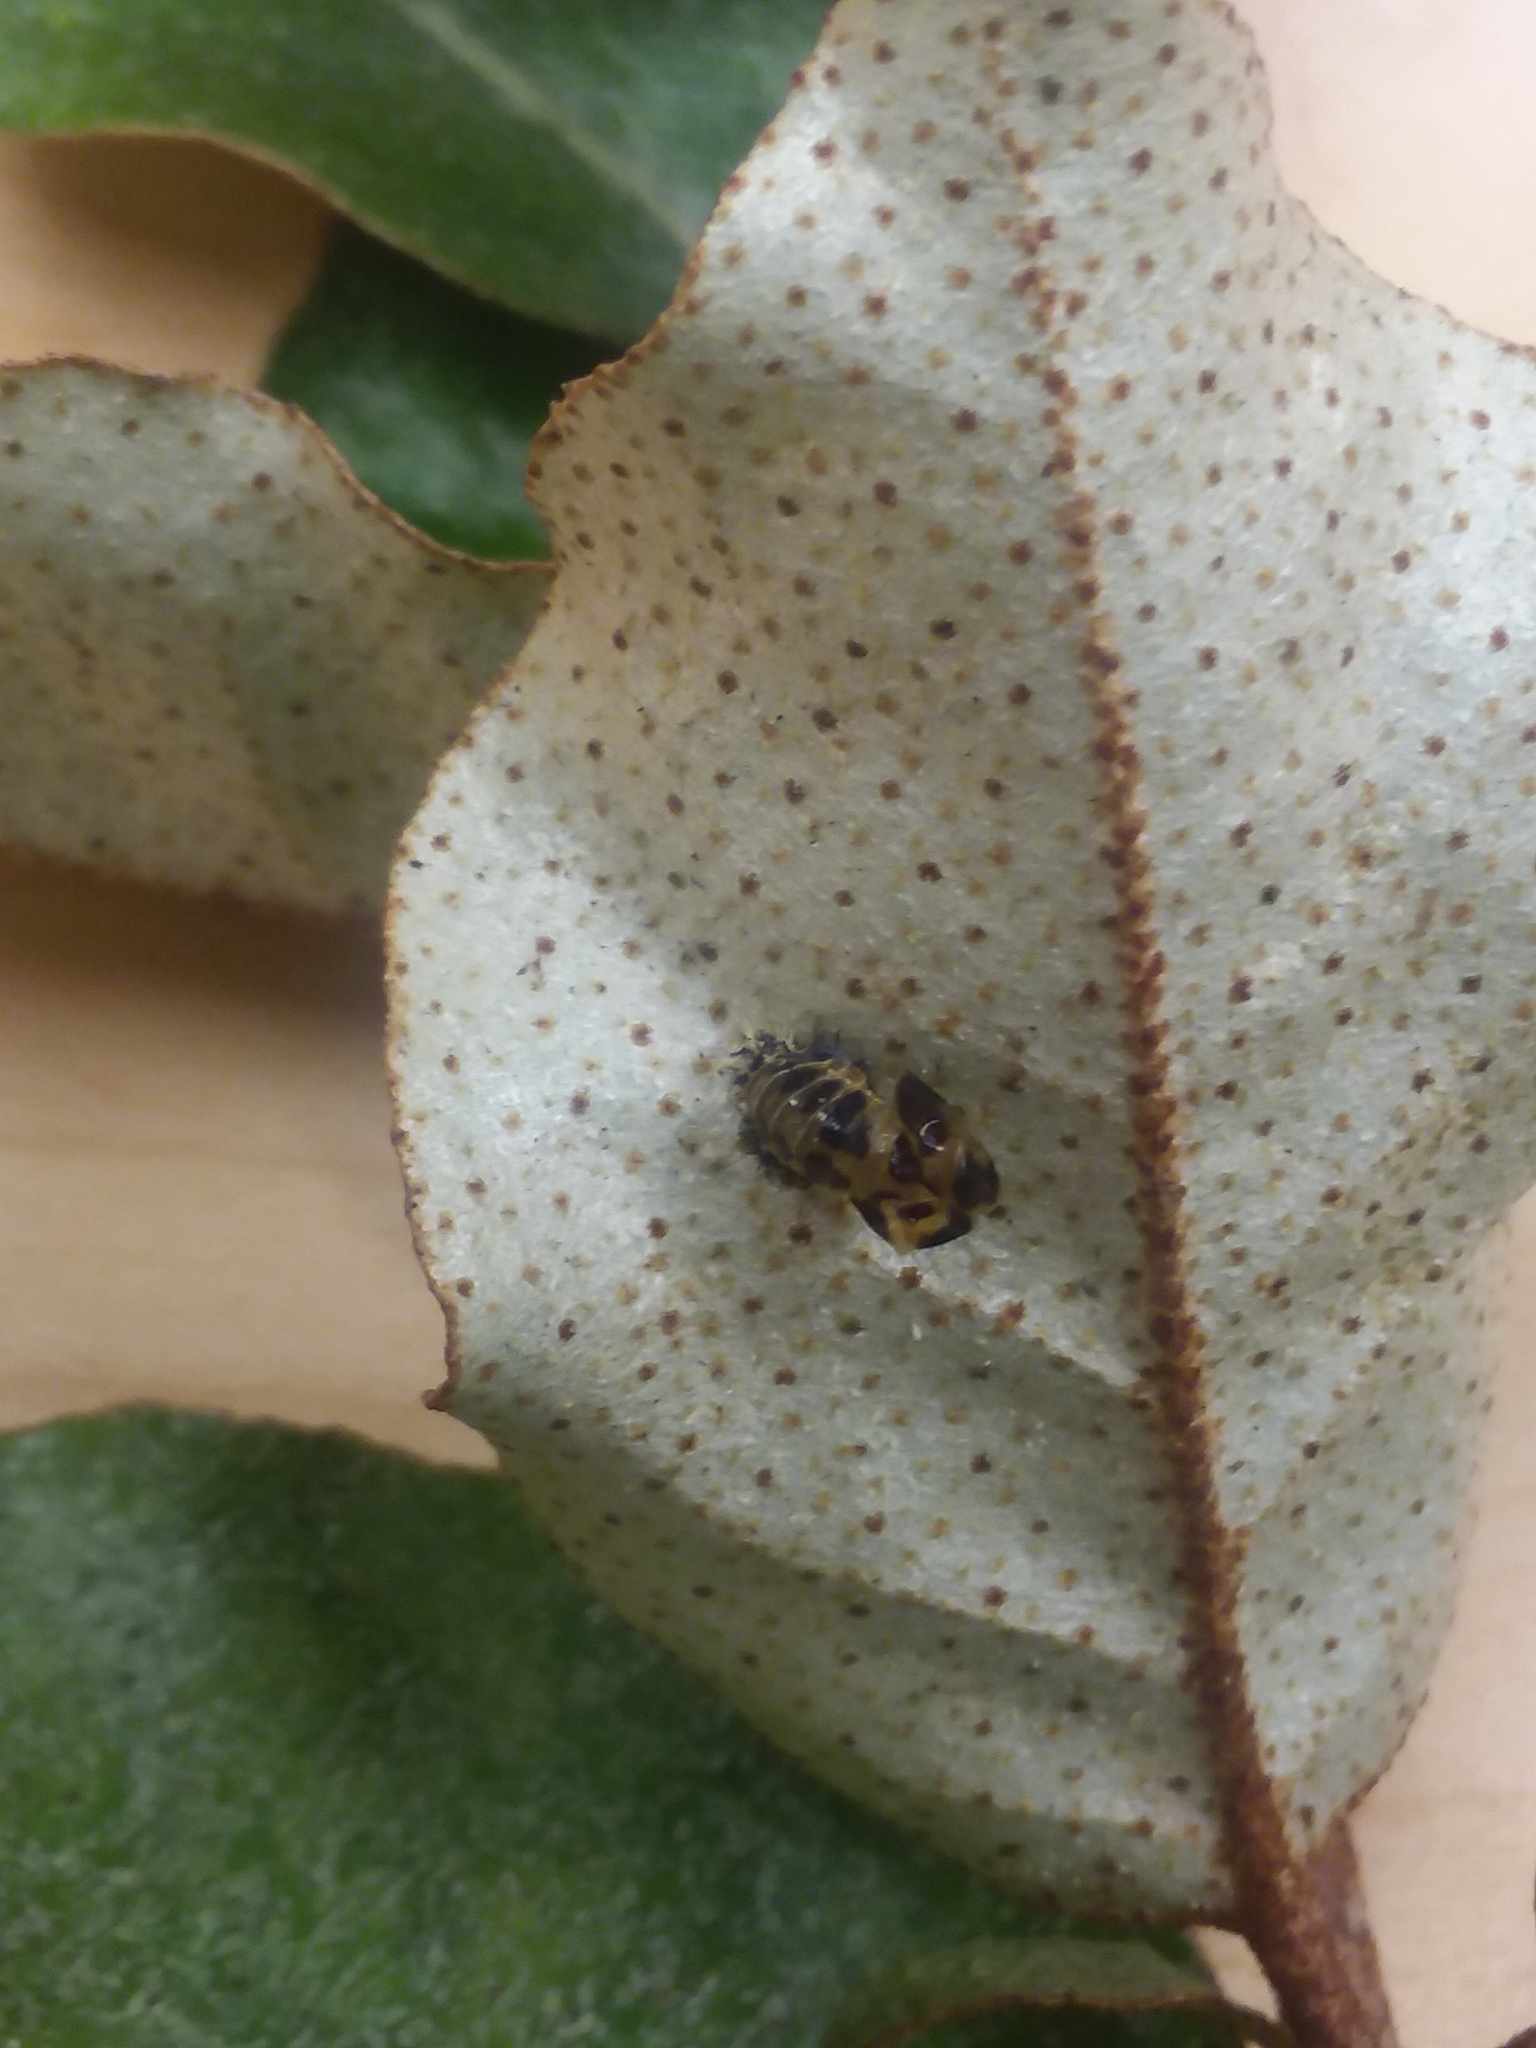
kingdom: Animalia
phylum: Arthropoda
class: Insecta
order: Coleoptera
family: Coccinellidae
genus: Harmonia
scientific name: Harmonia axyridis
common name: Harlequin ladybird
